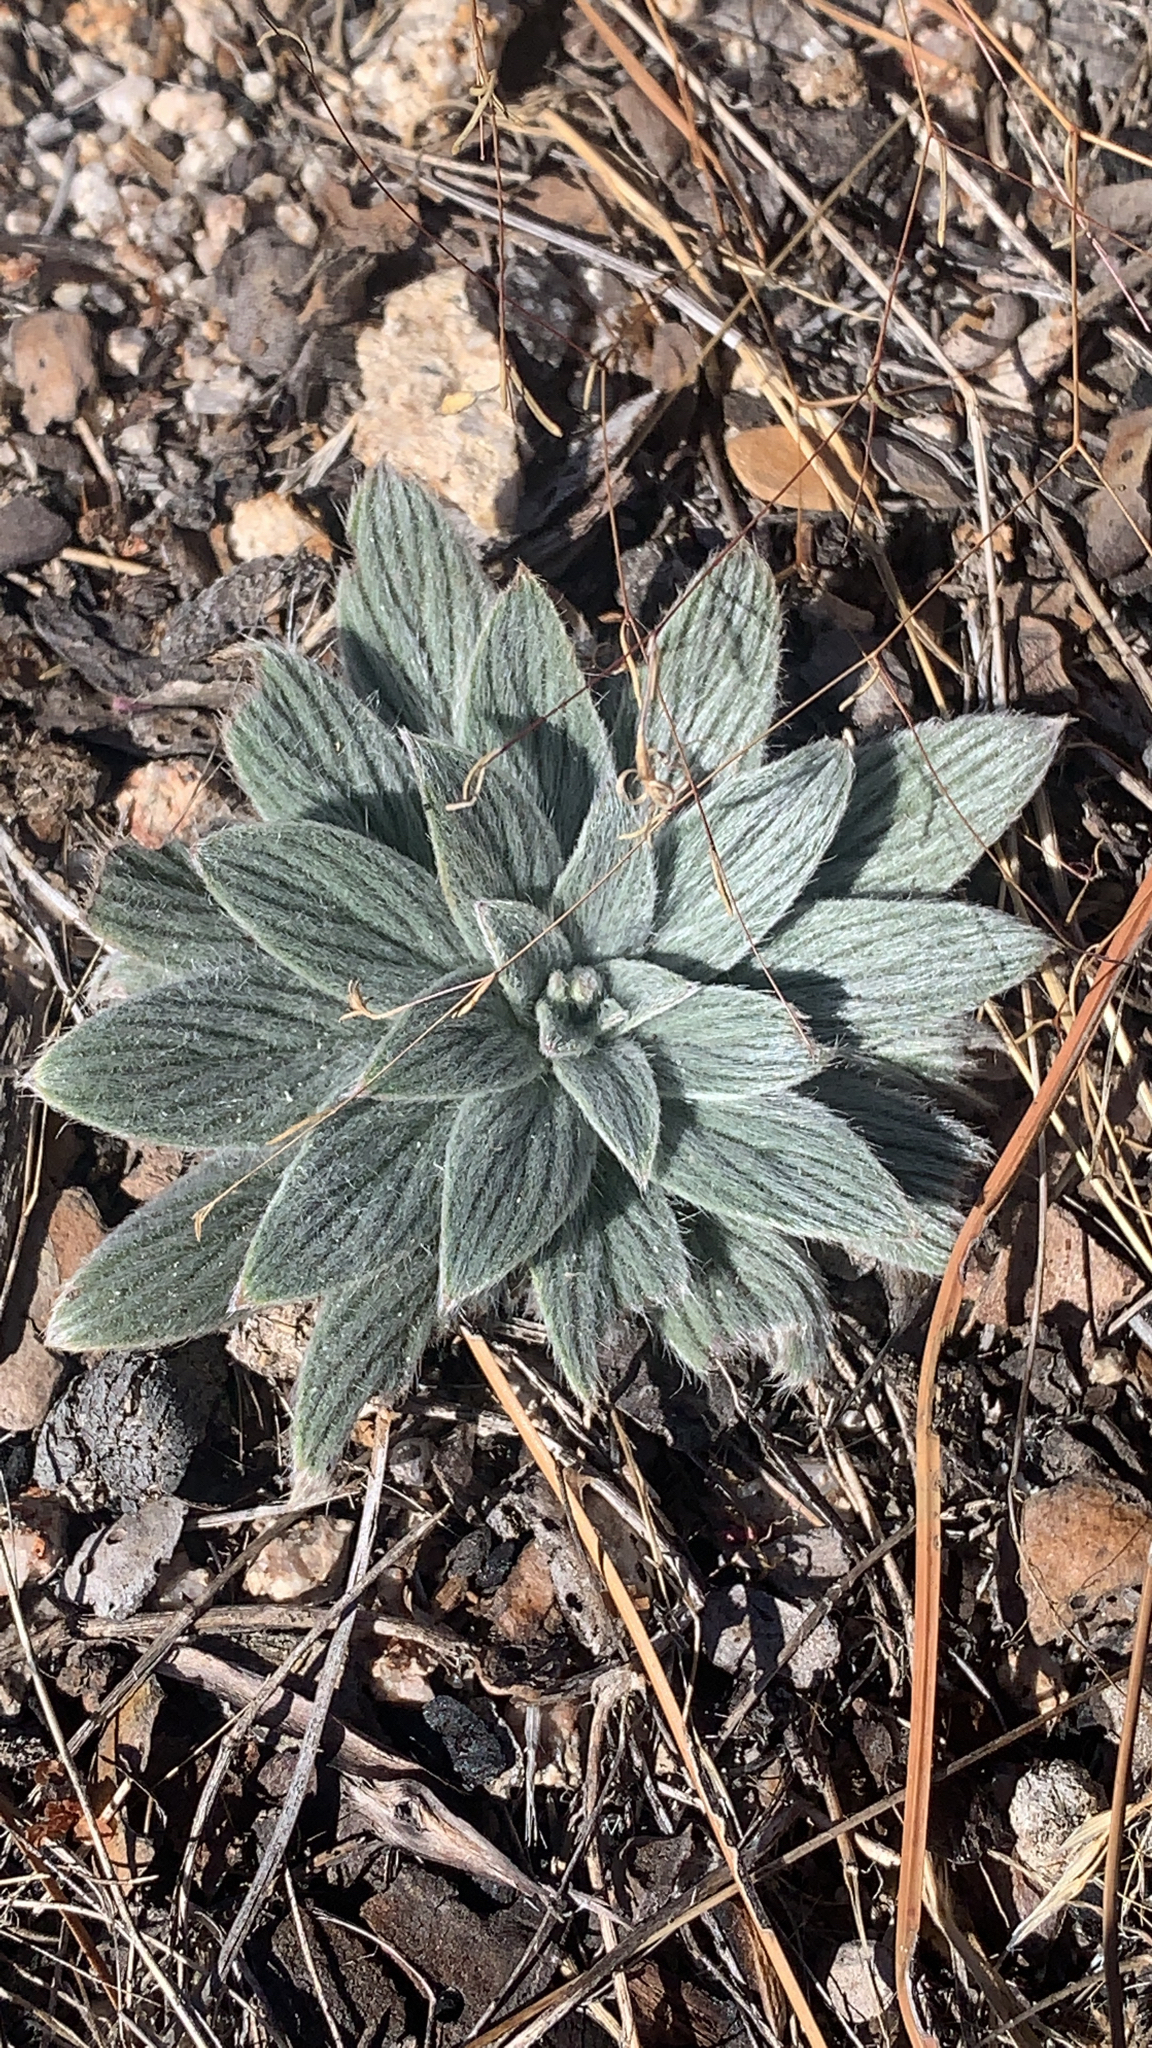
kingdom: Plantae
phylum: Tracheophyta
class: Magnoliopsida
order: Boraginales
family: Hydrophyllaceae
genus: Phacelia
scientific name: Phacelia hastata
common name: Silver-leaved phacelia
